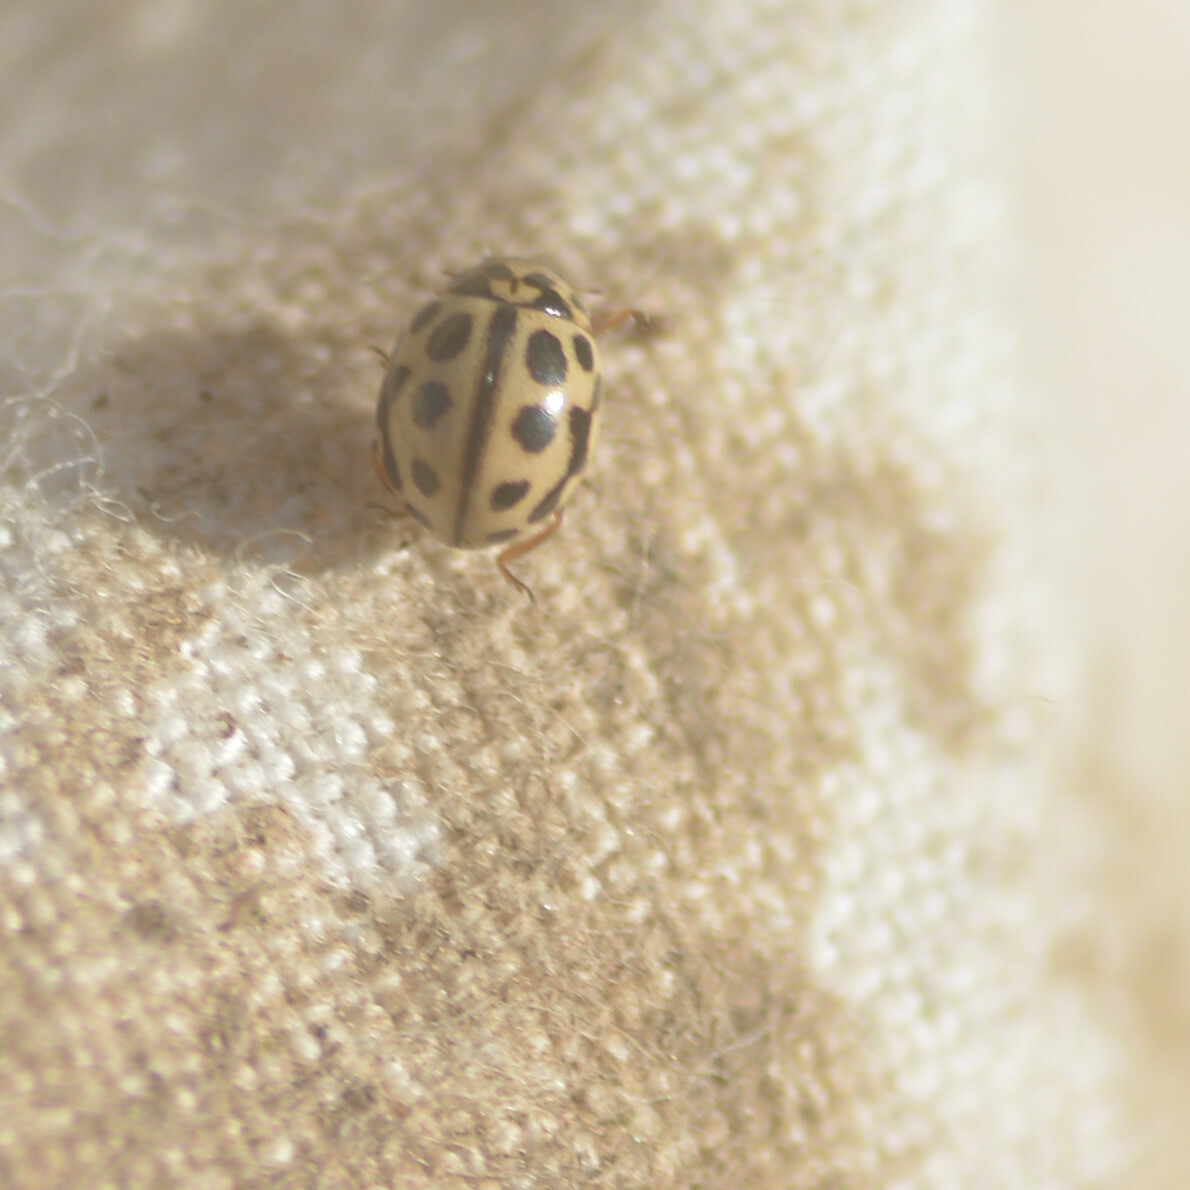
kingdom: Animalia
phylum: Arthropoda
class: Insecta
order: Coleoptera
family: Coccinellidae
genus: Tytthaspis
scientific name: Tytthaspis sedecimpunctata
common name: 16-spot ladybird
